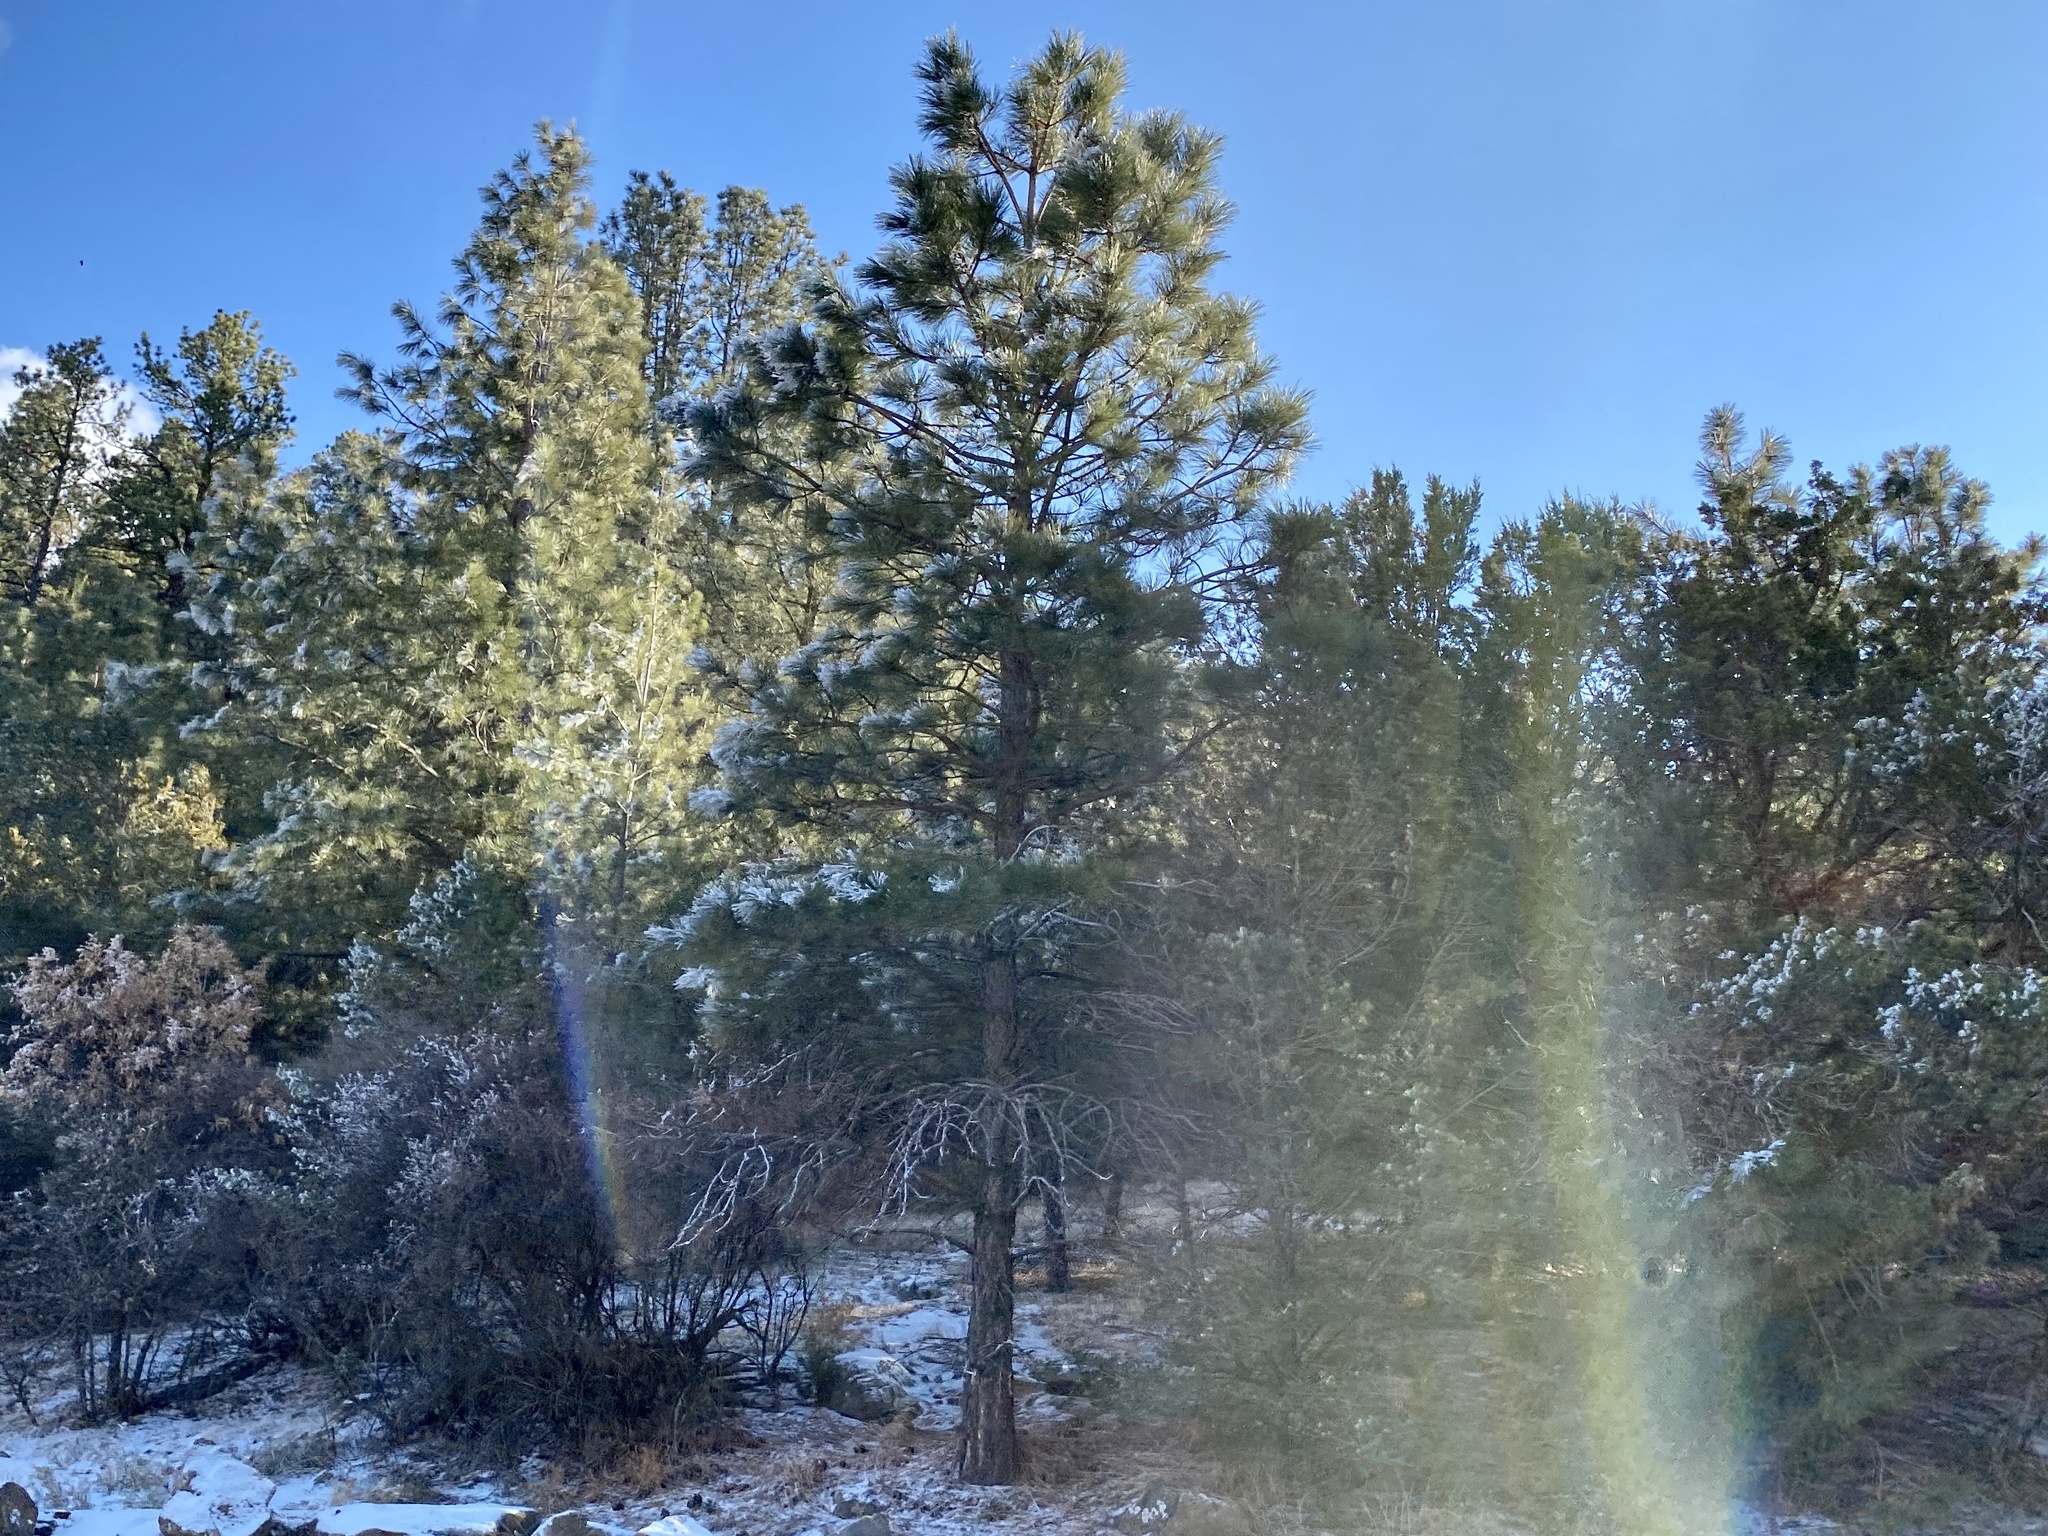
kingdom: Plantae
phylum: Tracheophyta
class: Pinopsida
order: Pinales
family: Pinaceae
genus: Pinus
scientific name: Pinus ponderosa
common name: Western yellow-pine
